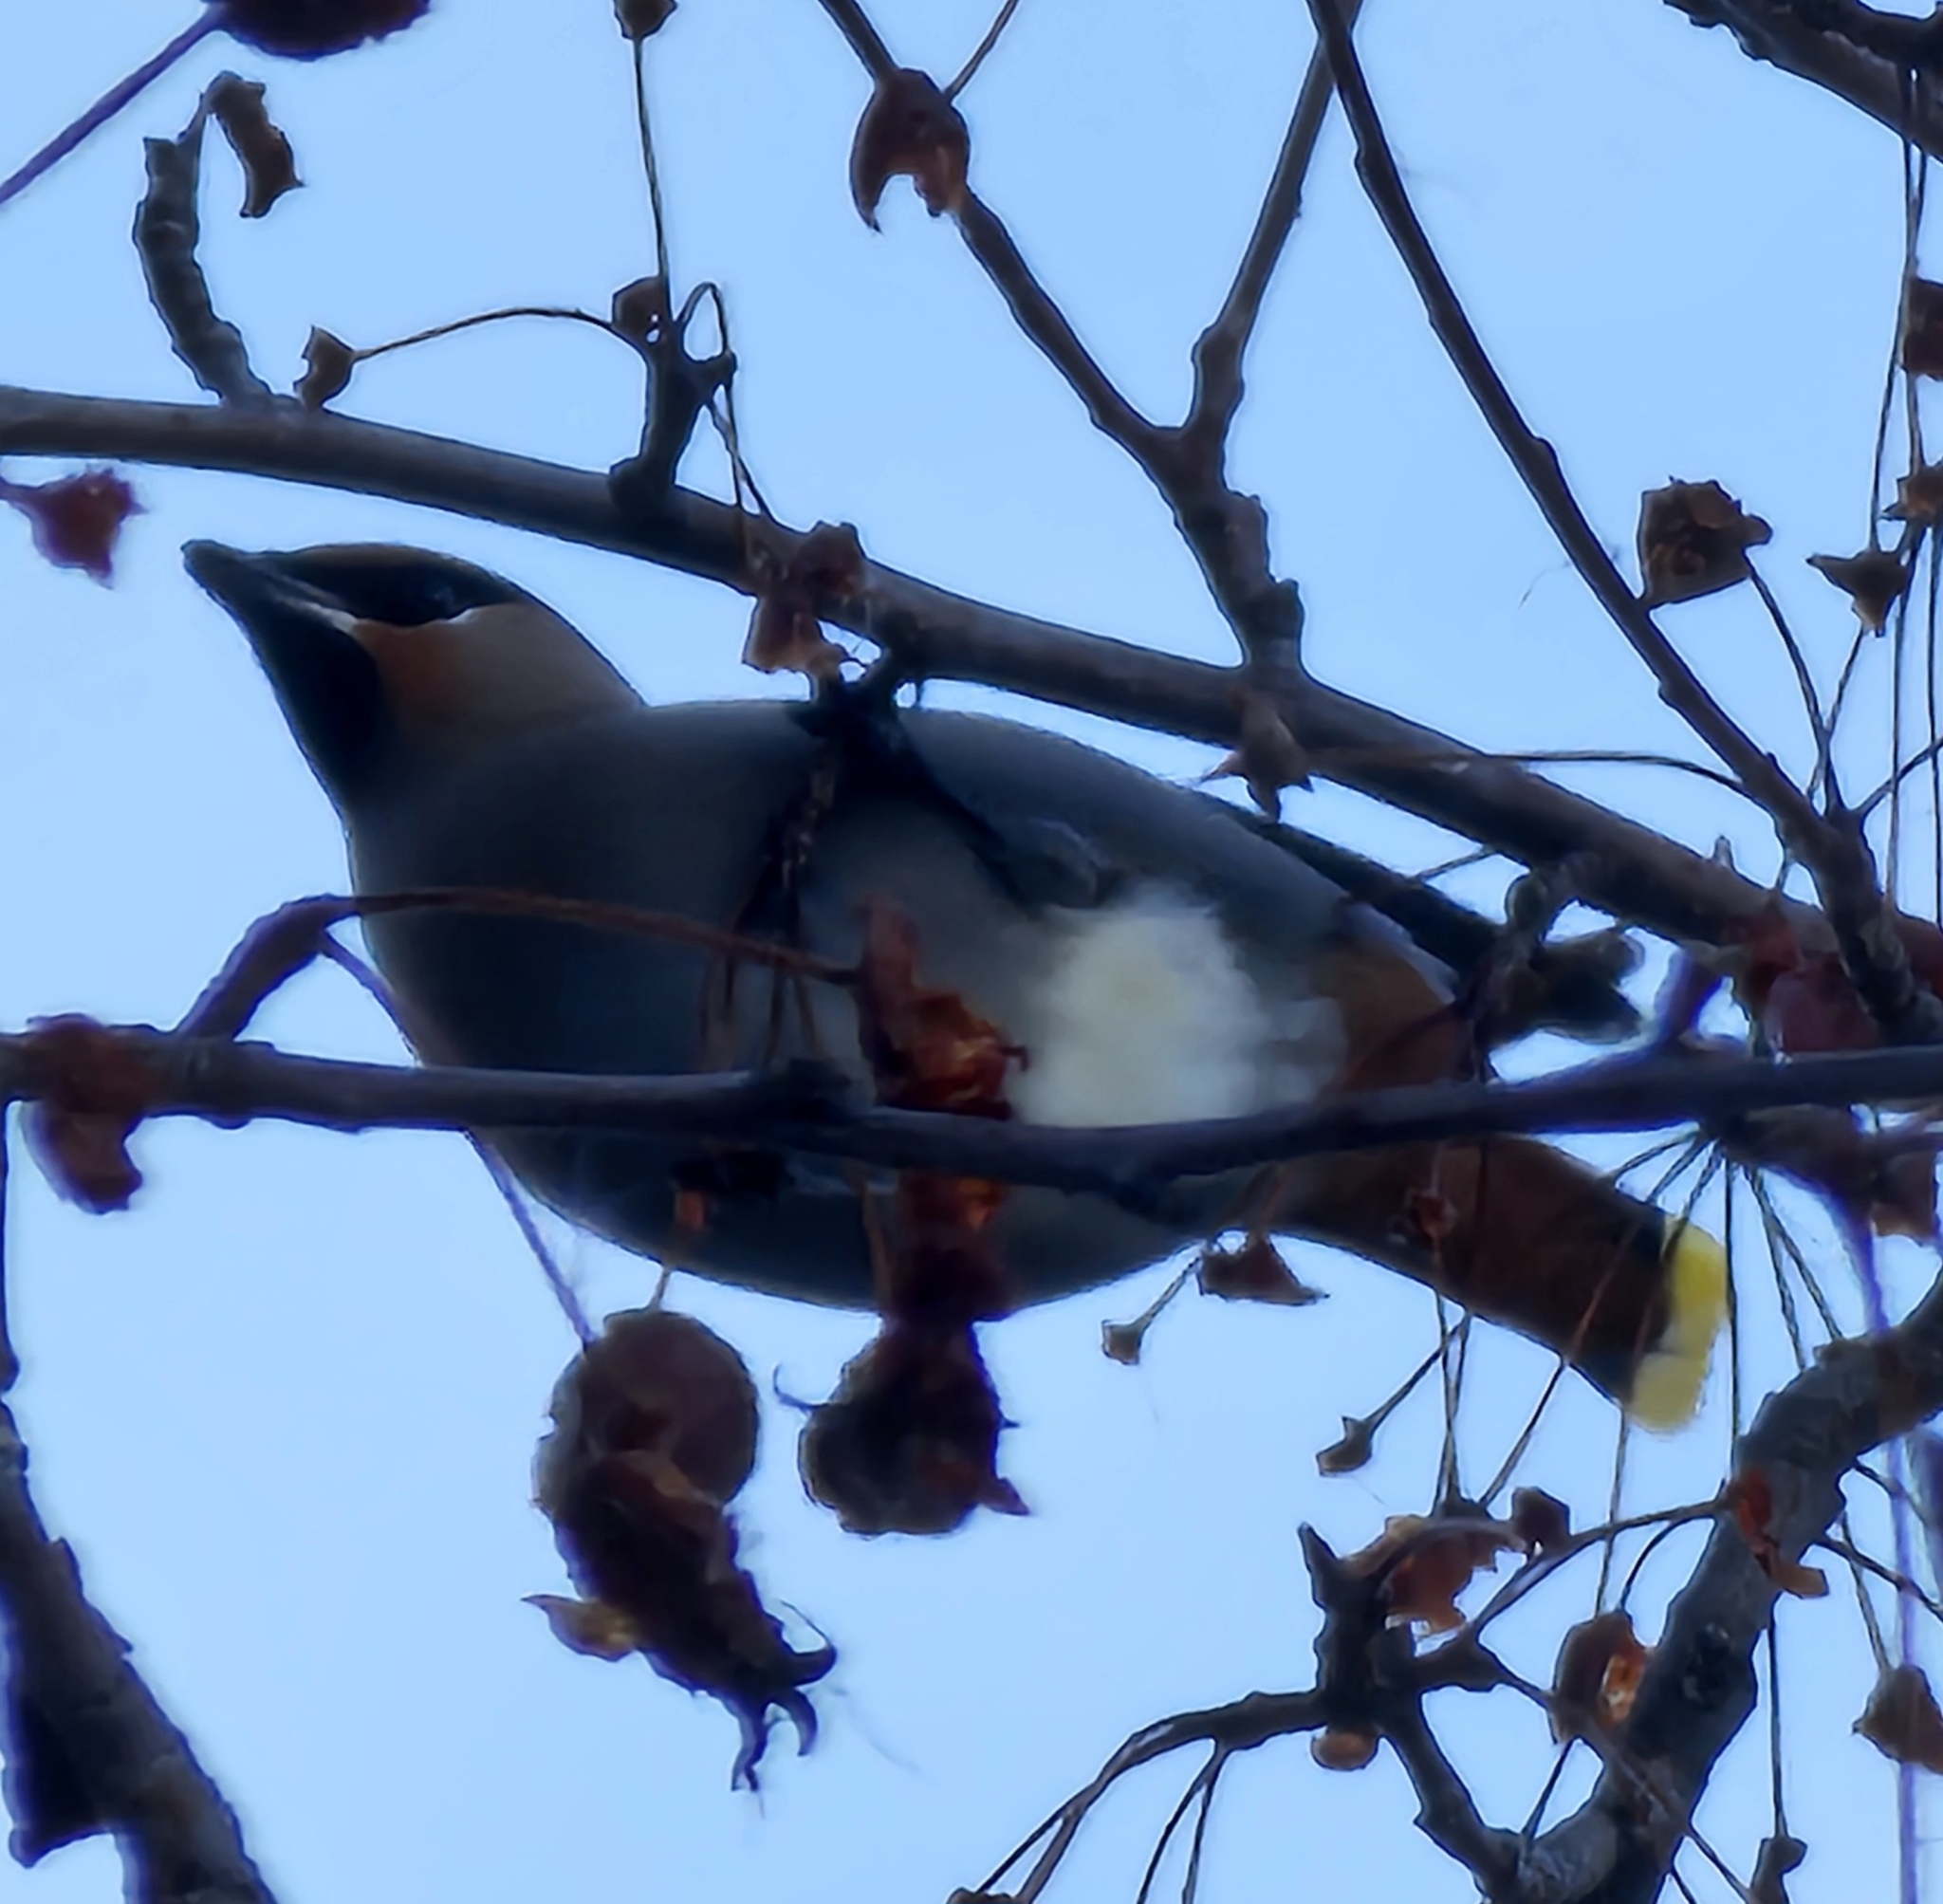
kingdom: Animalia
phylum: Chordata
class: Aves
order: Passeriformes
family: Bombycillidae
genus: Bombycilla
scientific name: Bombycilla garrulus
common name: Bohemian waxwing
